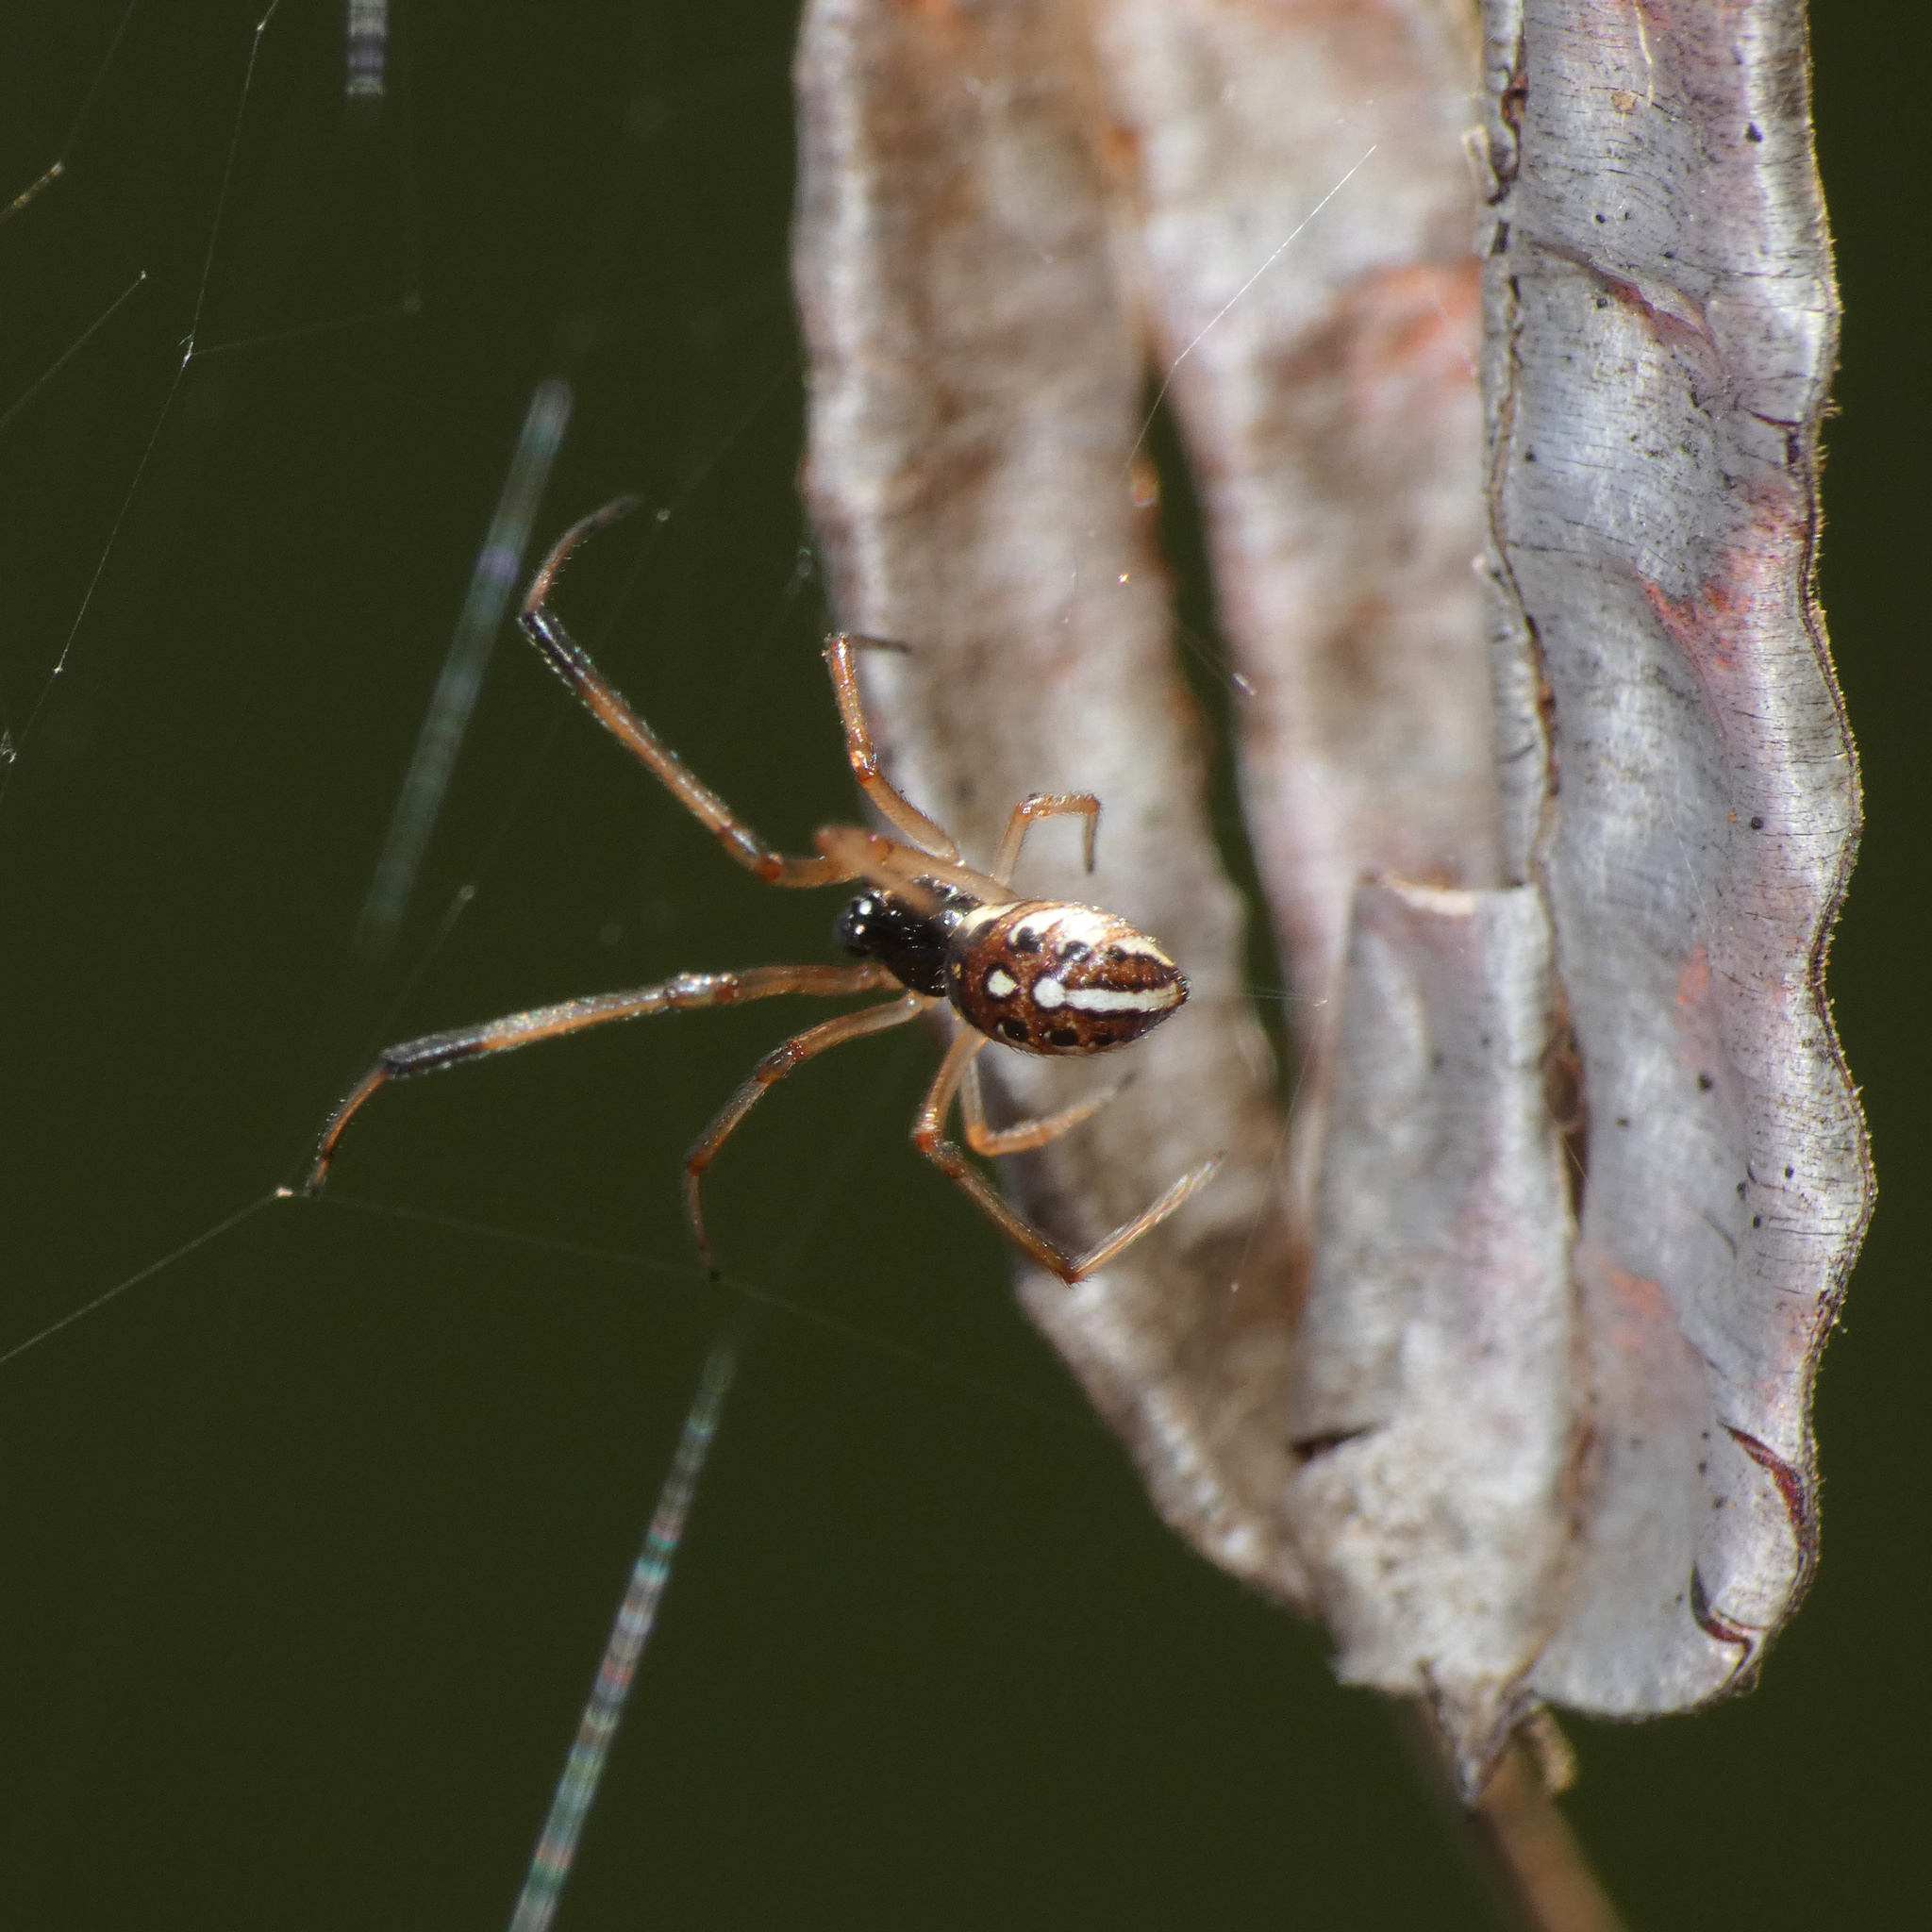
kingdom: Animalia
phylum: Arthropoda
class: Arachnida
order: Araneae
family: Theridiidae
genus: Latrodectus
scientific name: Latrodectus geometricus
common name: Brown widow spider
